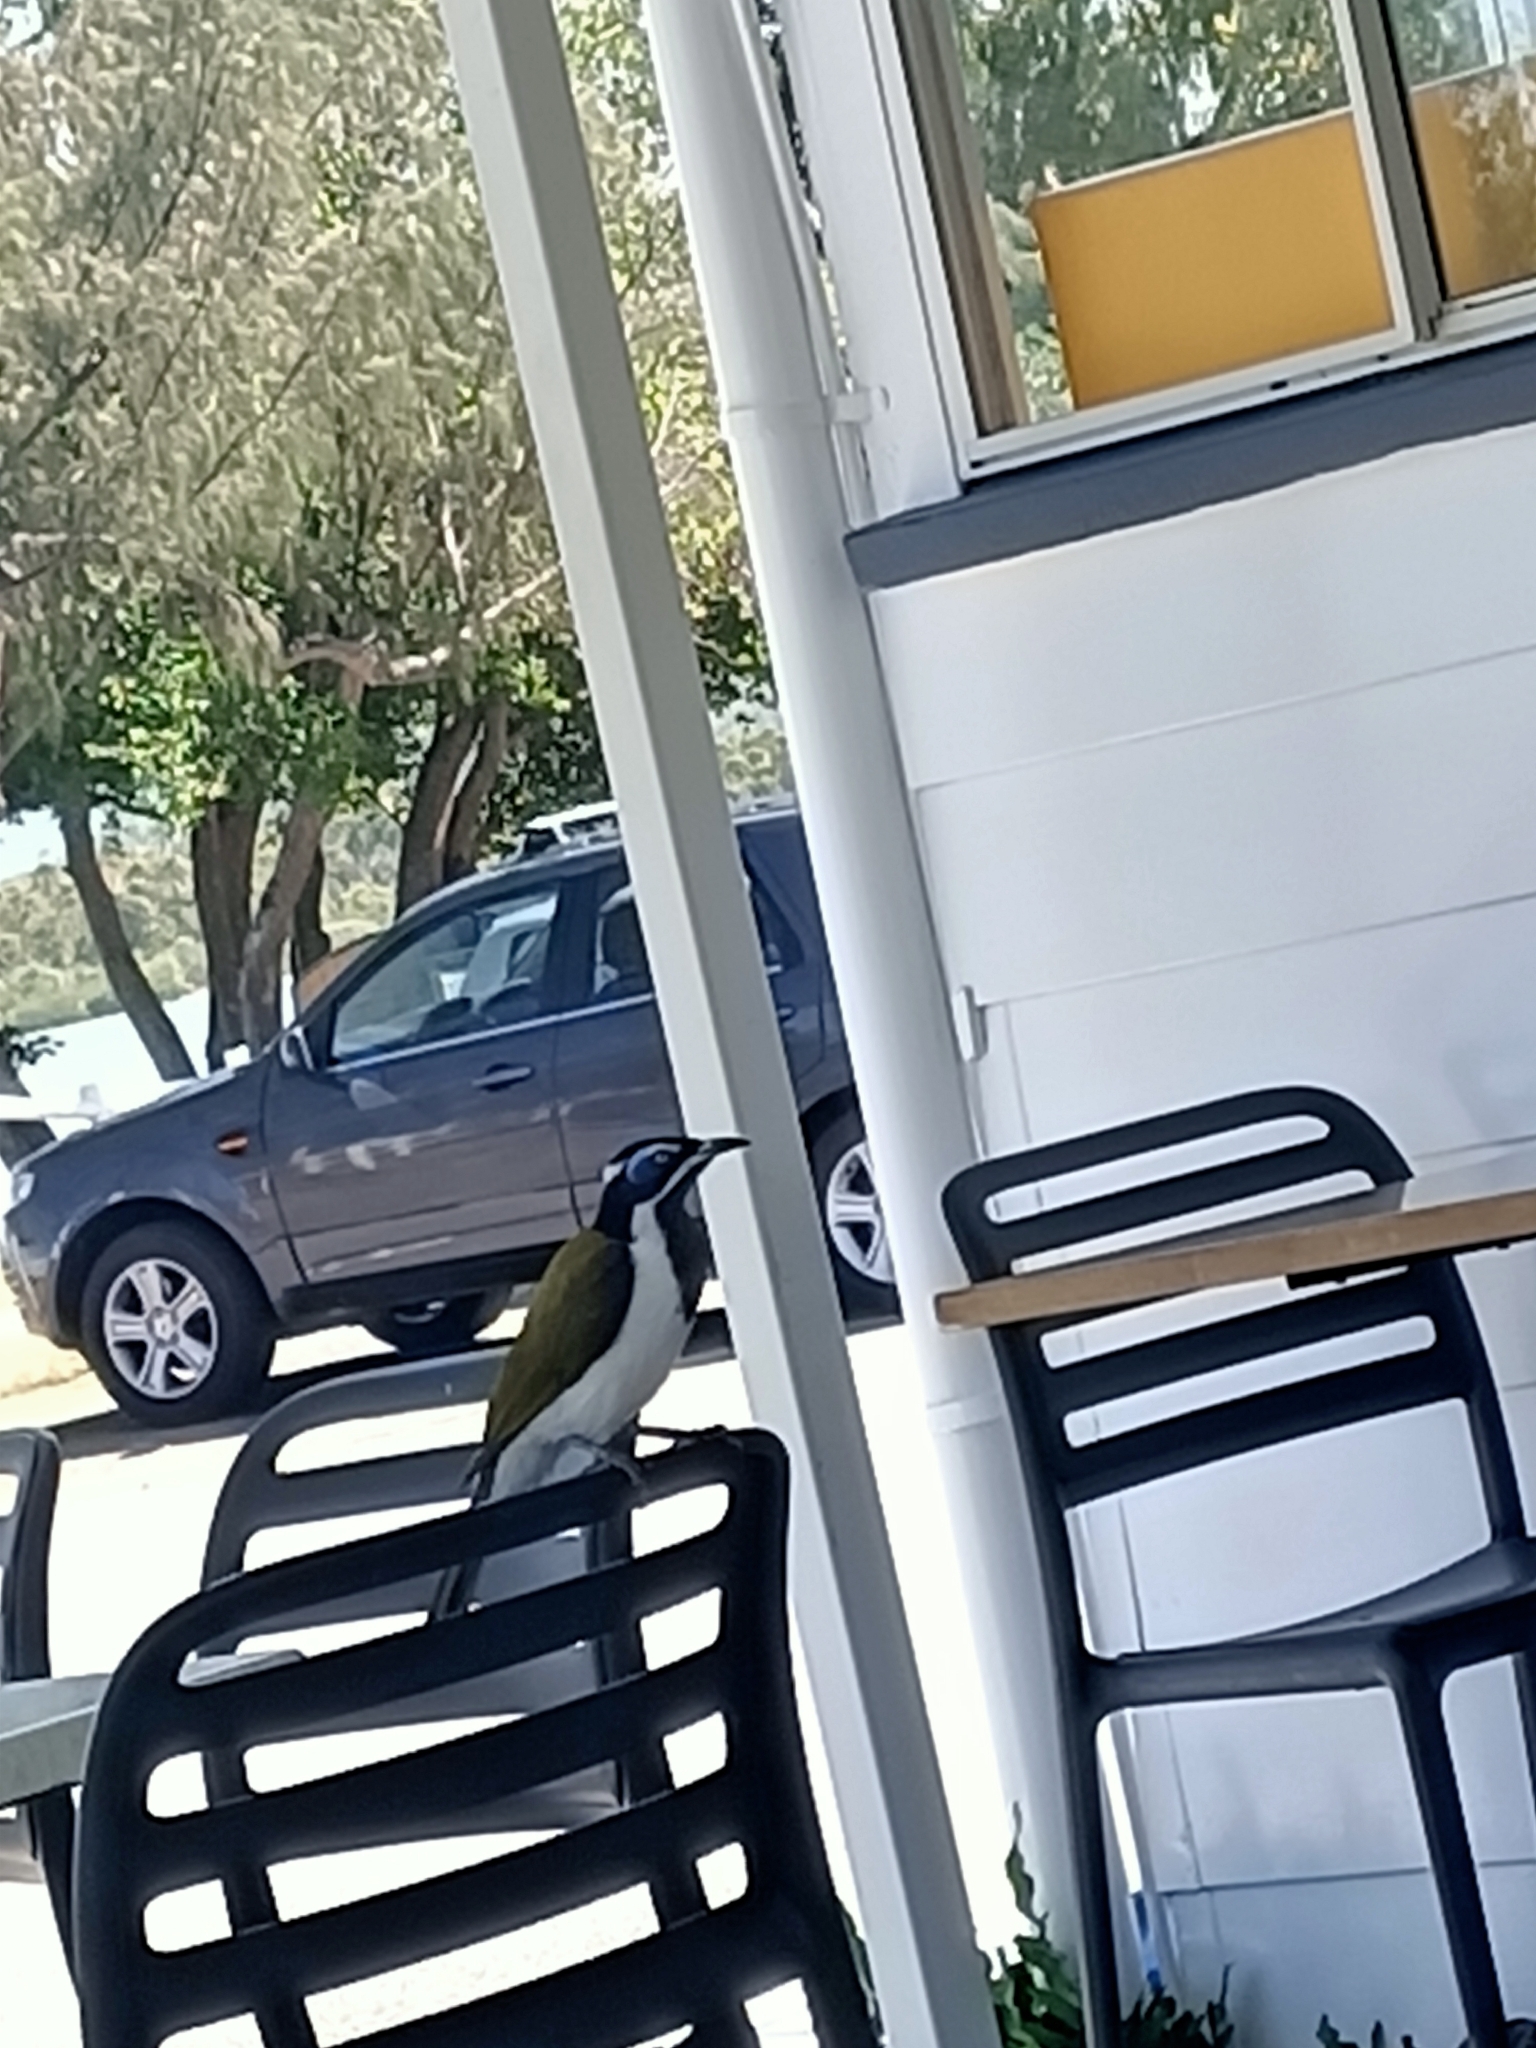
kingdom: Animalia
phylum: Chordata
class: Aves
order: Passeriformes
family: Meliphagidae
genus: Entomyzon
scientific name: Entomyzon cyanotis
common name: Blue-faced honeyeater
